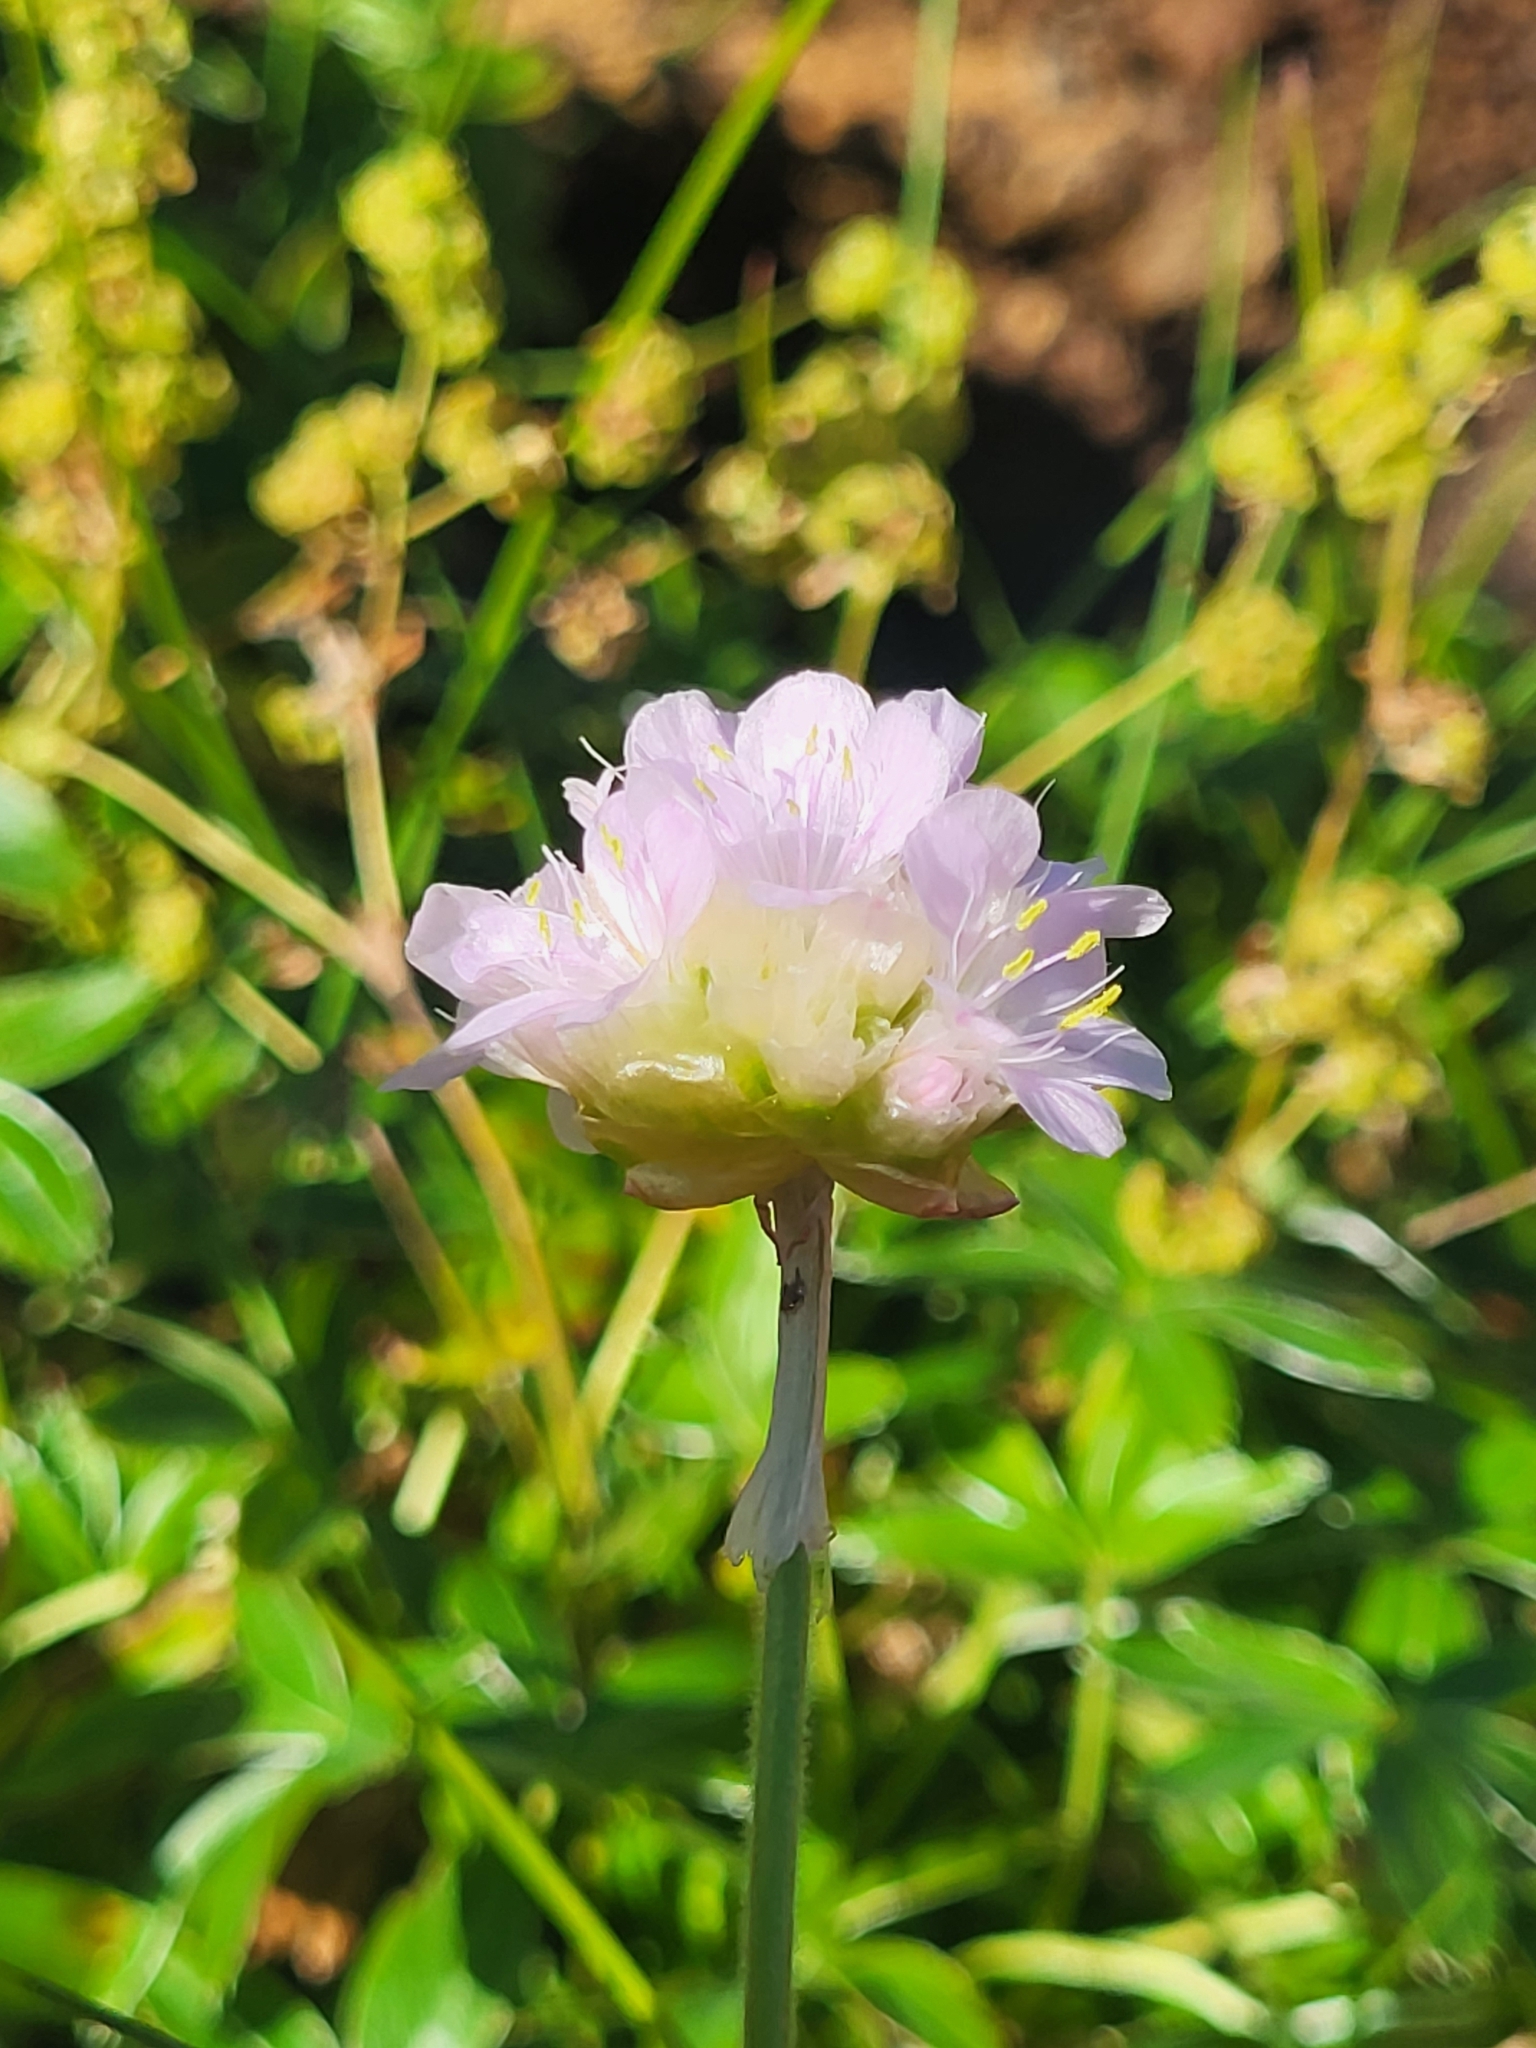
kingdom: Plantae
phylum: Tracheophyta
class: Magnoliopsida
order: Caryophyllales
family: Plumbaginaceae
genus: Armeria
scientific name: Armeria maritima
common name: Thrift
